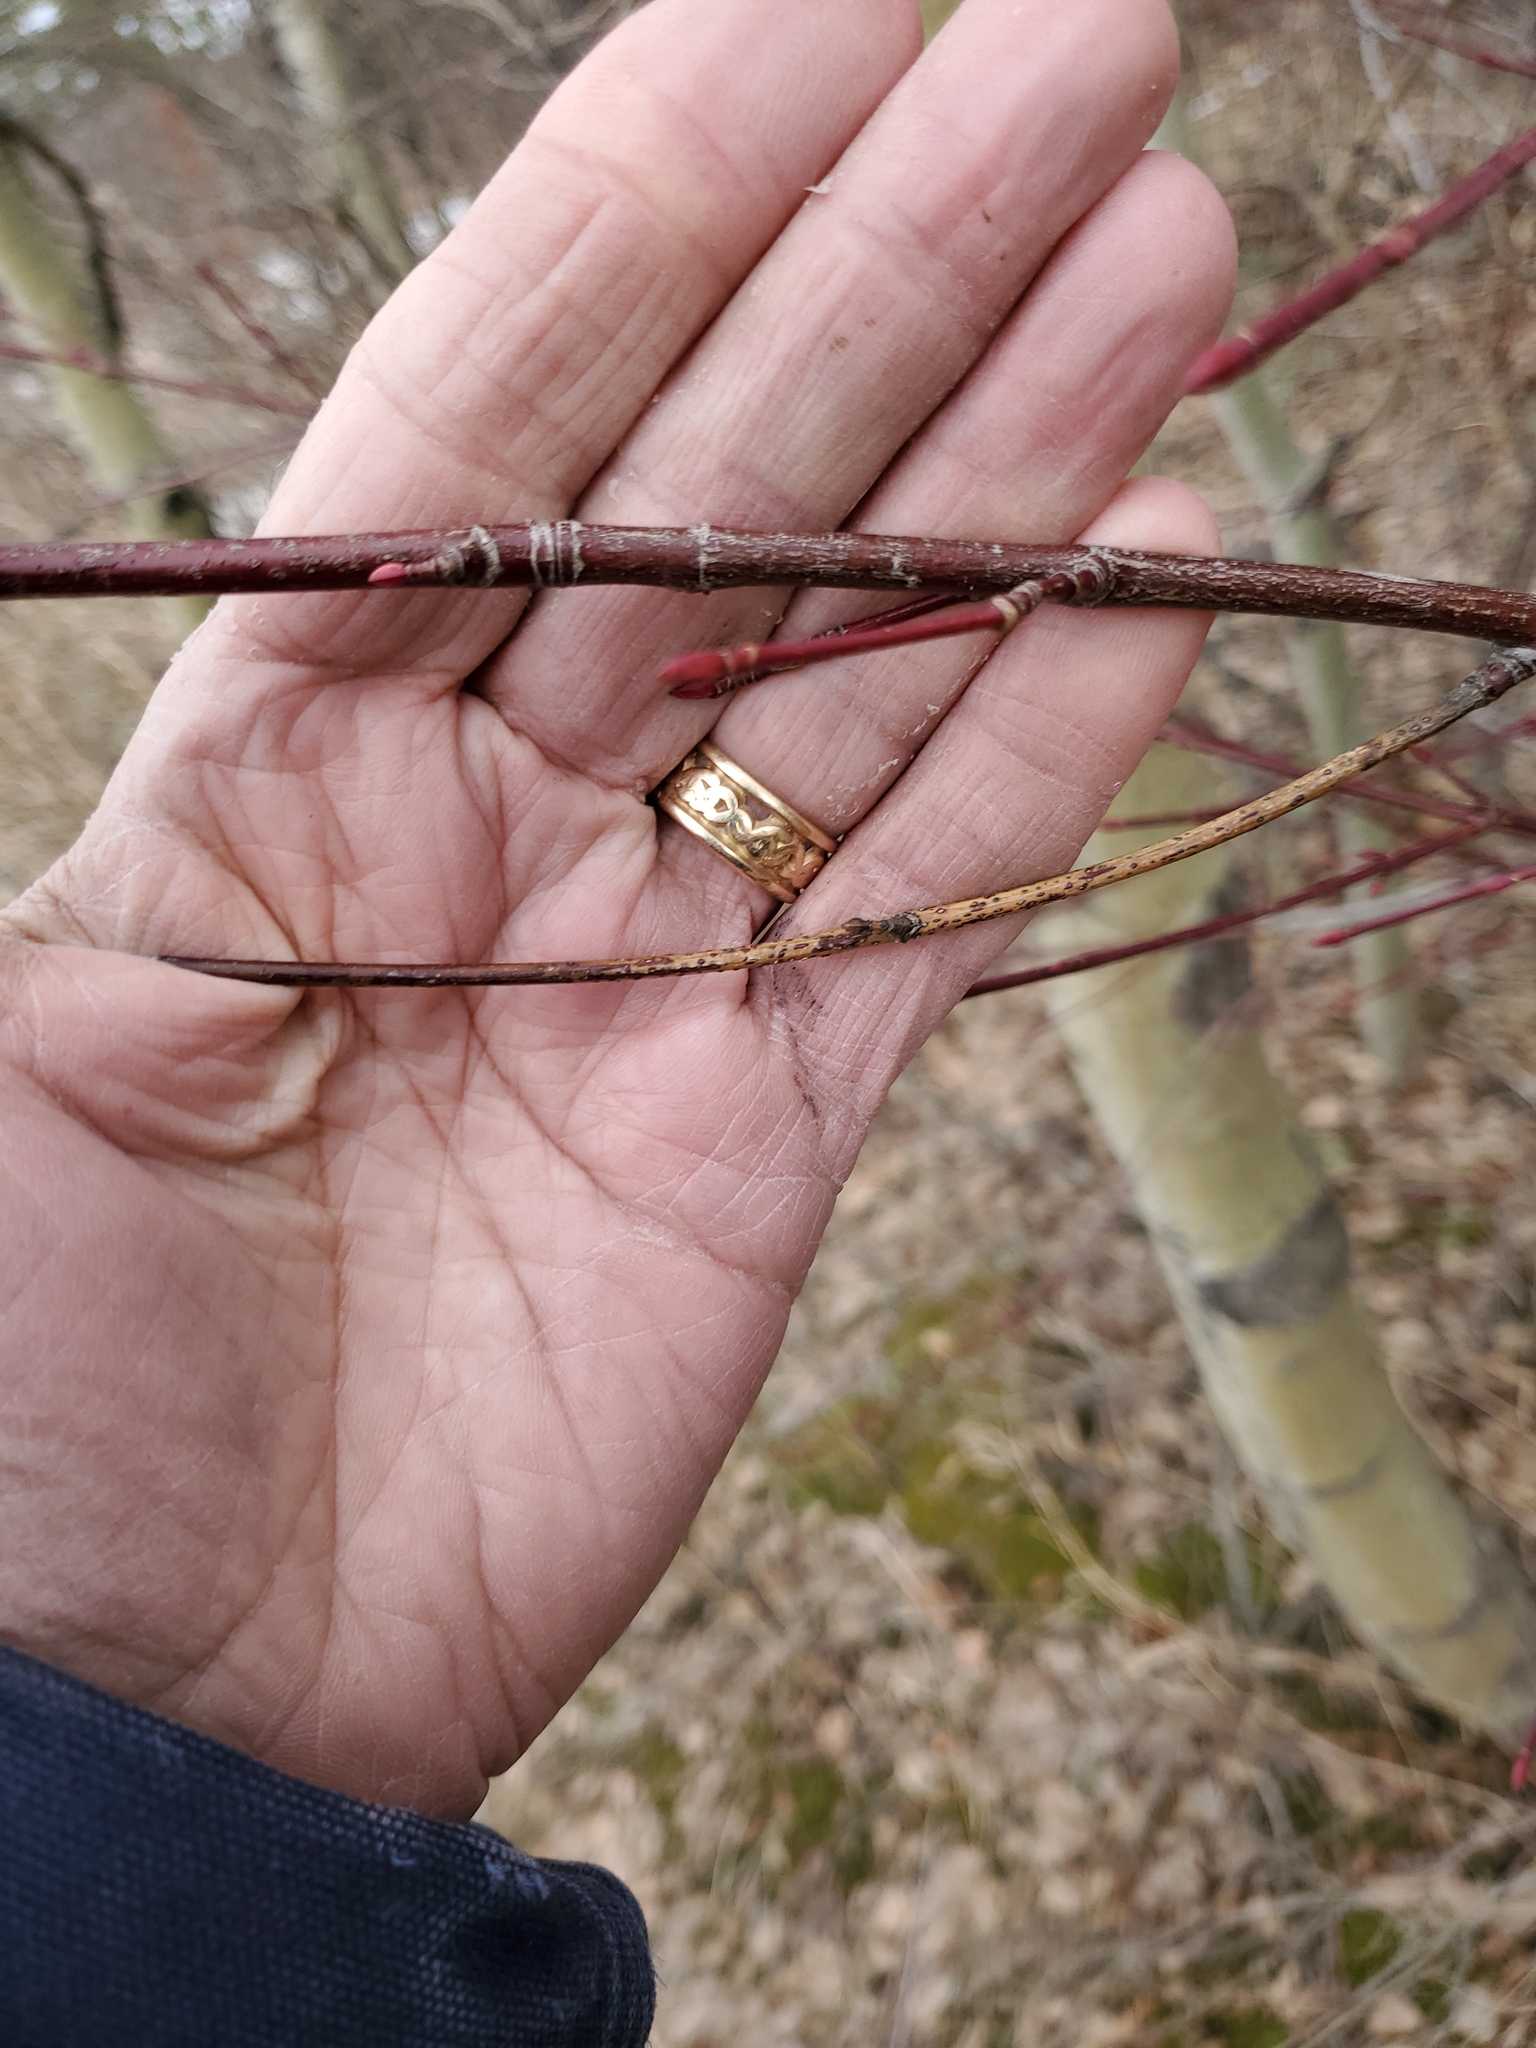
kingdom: Plantae
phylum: Tracheophyta
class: Magnoliopsida
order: Cornales
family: Cornaceae
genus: Cornus
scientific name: Cornus sericea
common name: Red-osier dogwood
